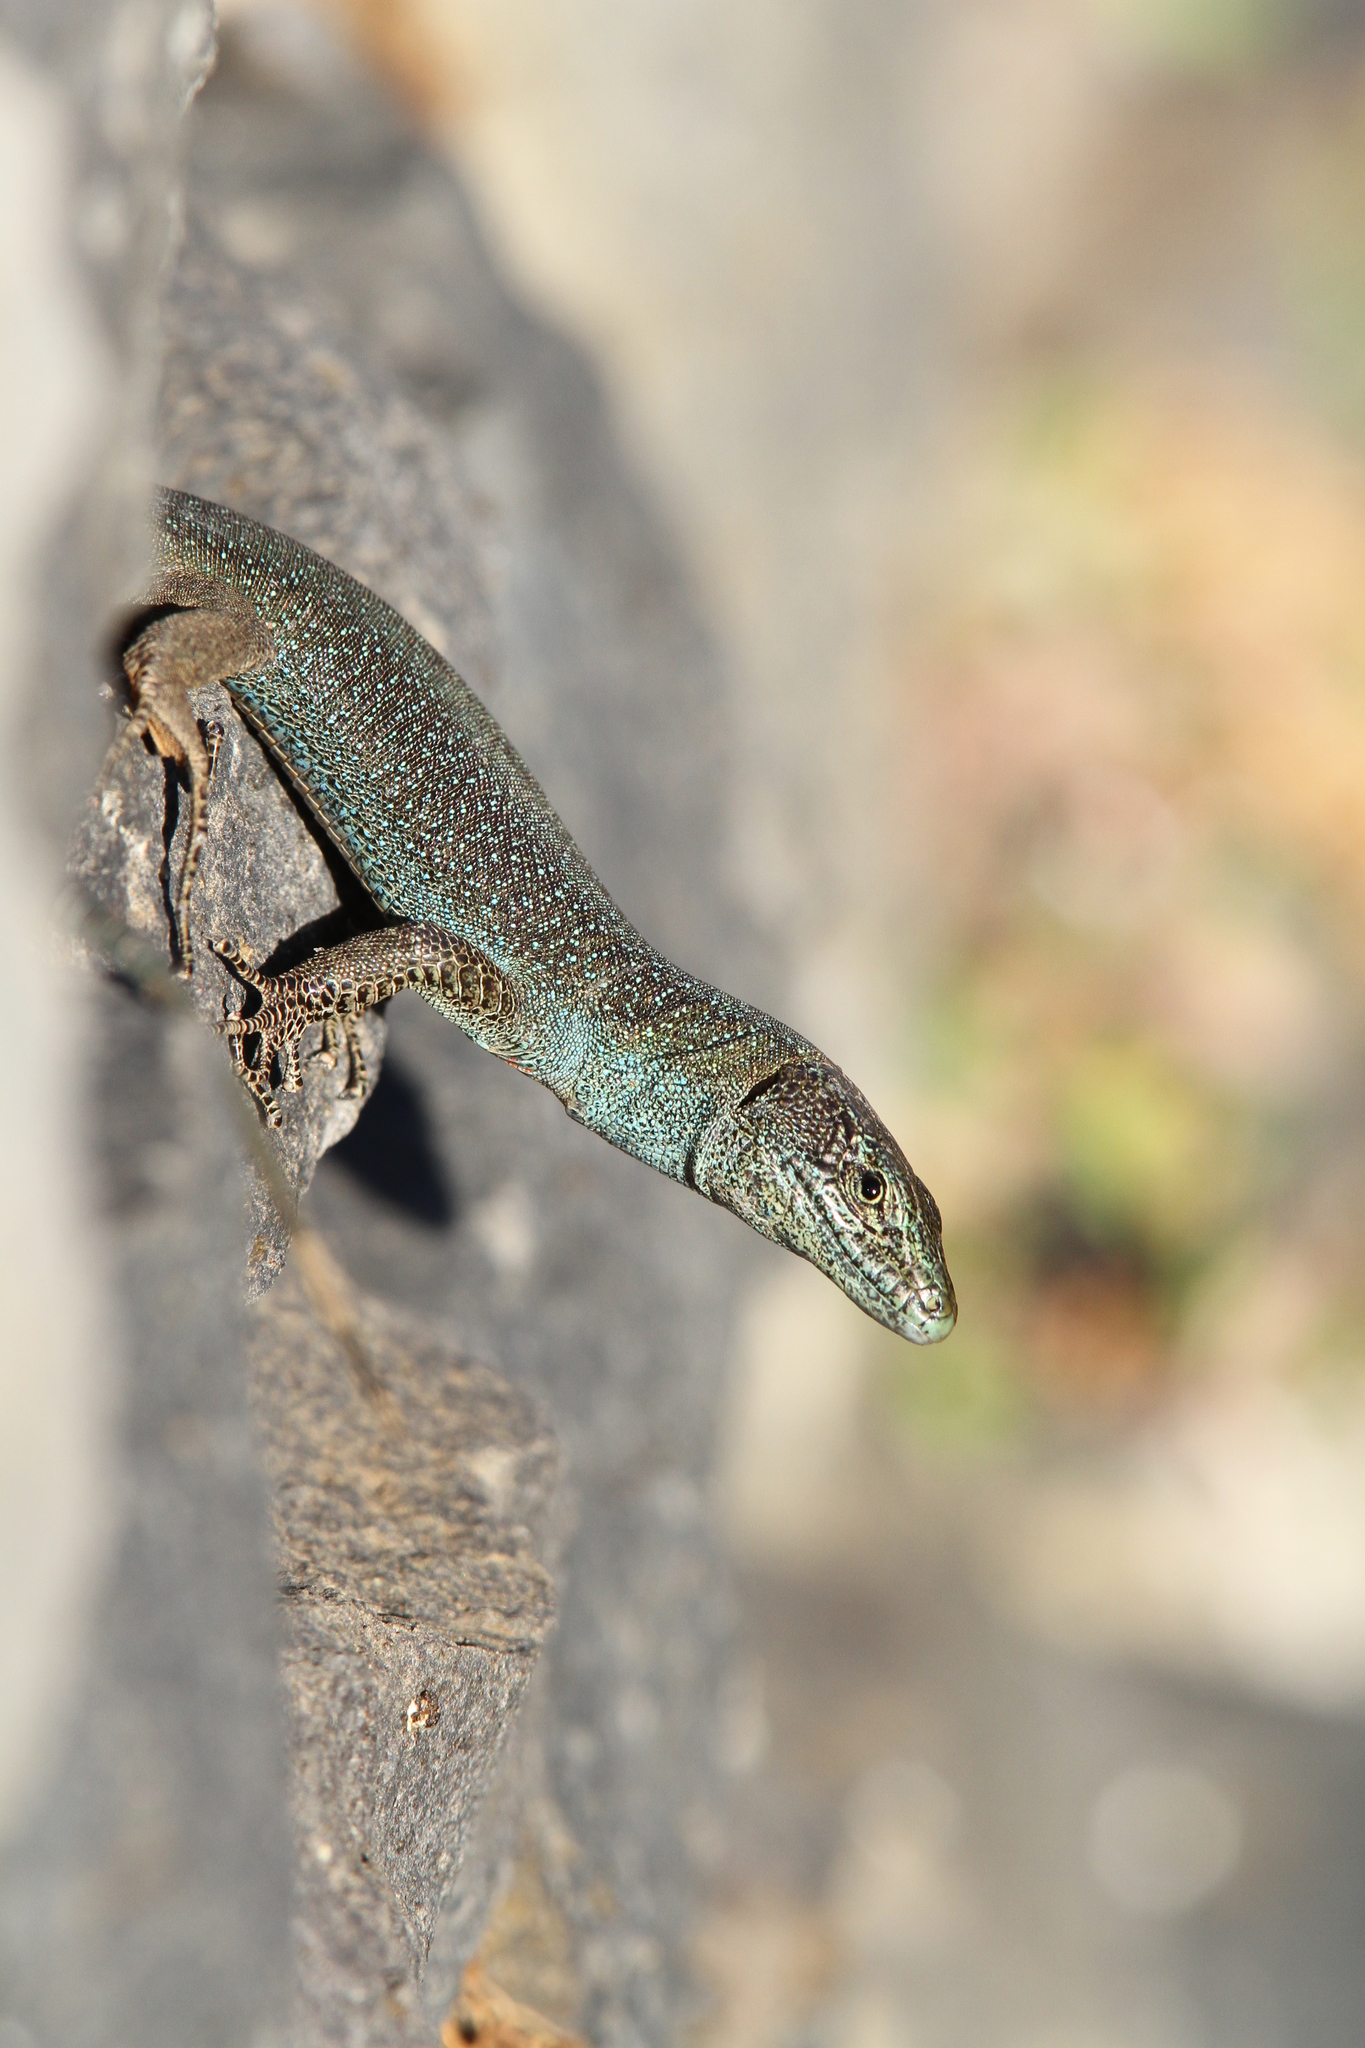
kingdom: Animalia
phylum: Chordata
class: Squamata
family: Lacertidae
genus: Teira
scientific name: Teira dugesii
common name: Madeira lizard
